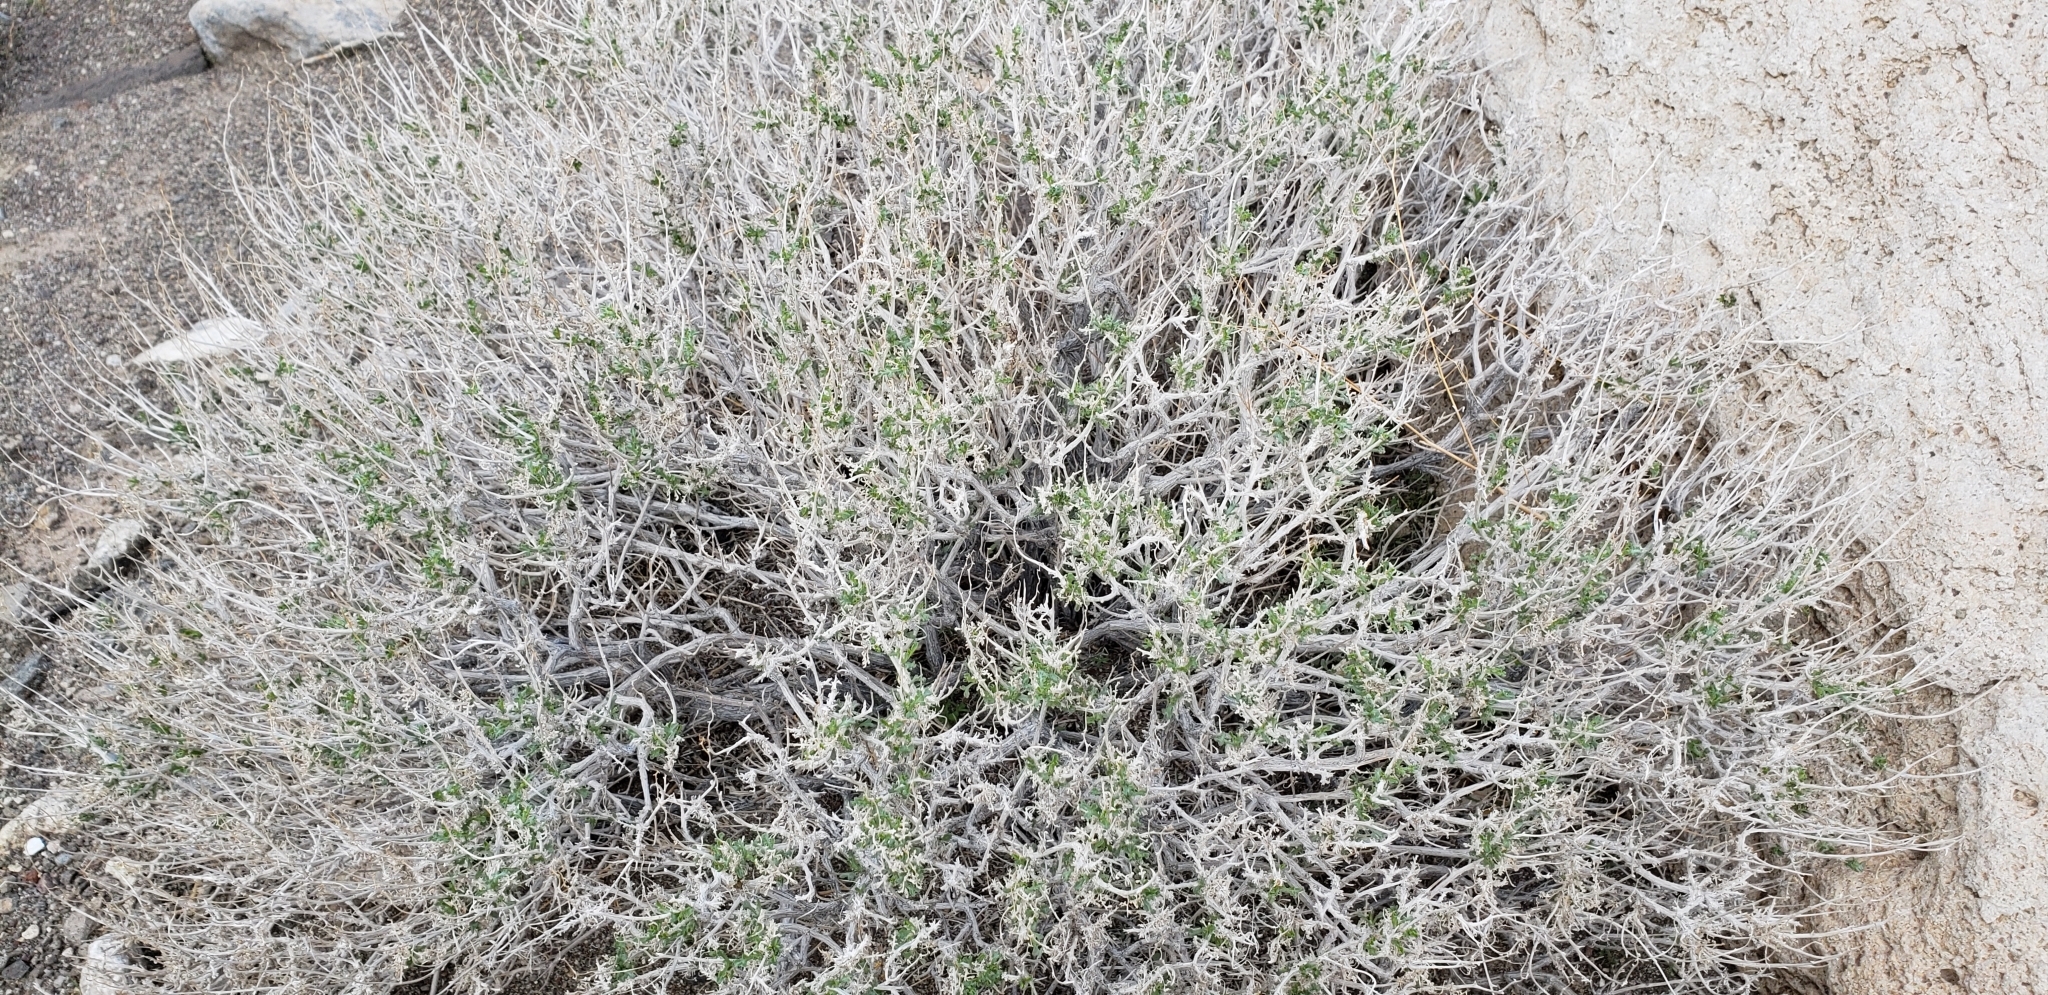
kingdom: Plantae
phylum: Tracheophyta
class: Magnoliopsida
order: Asterales
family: Asteraceae
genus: Ambrosia
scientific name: Ambrosia dumosa
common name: Bur-sage
